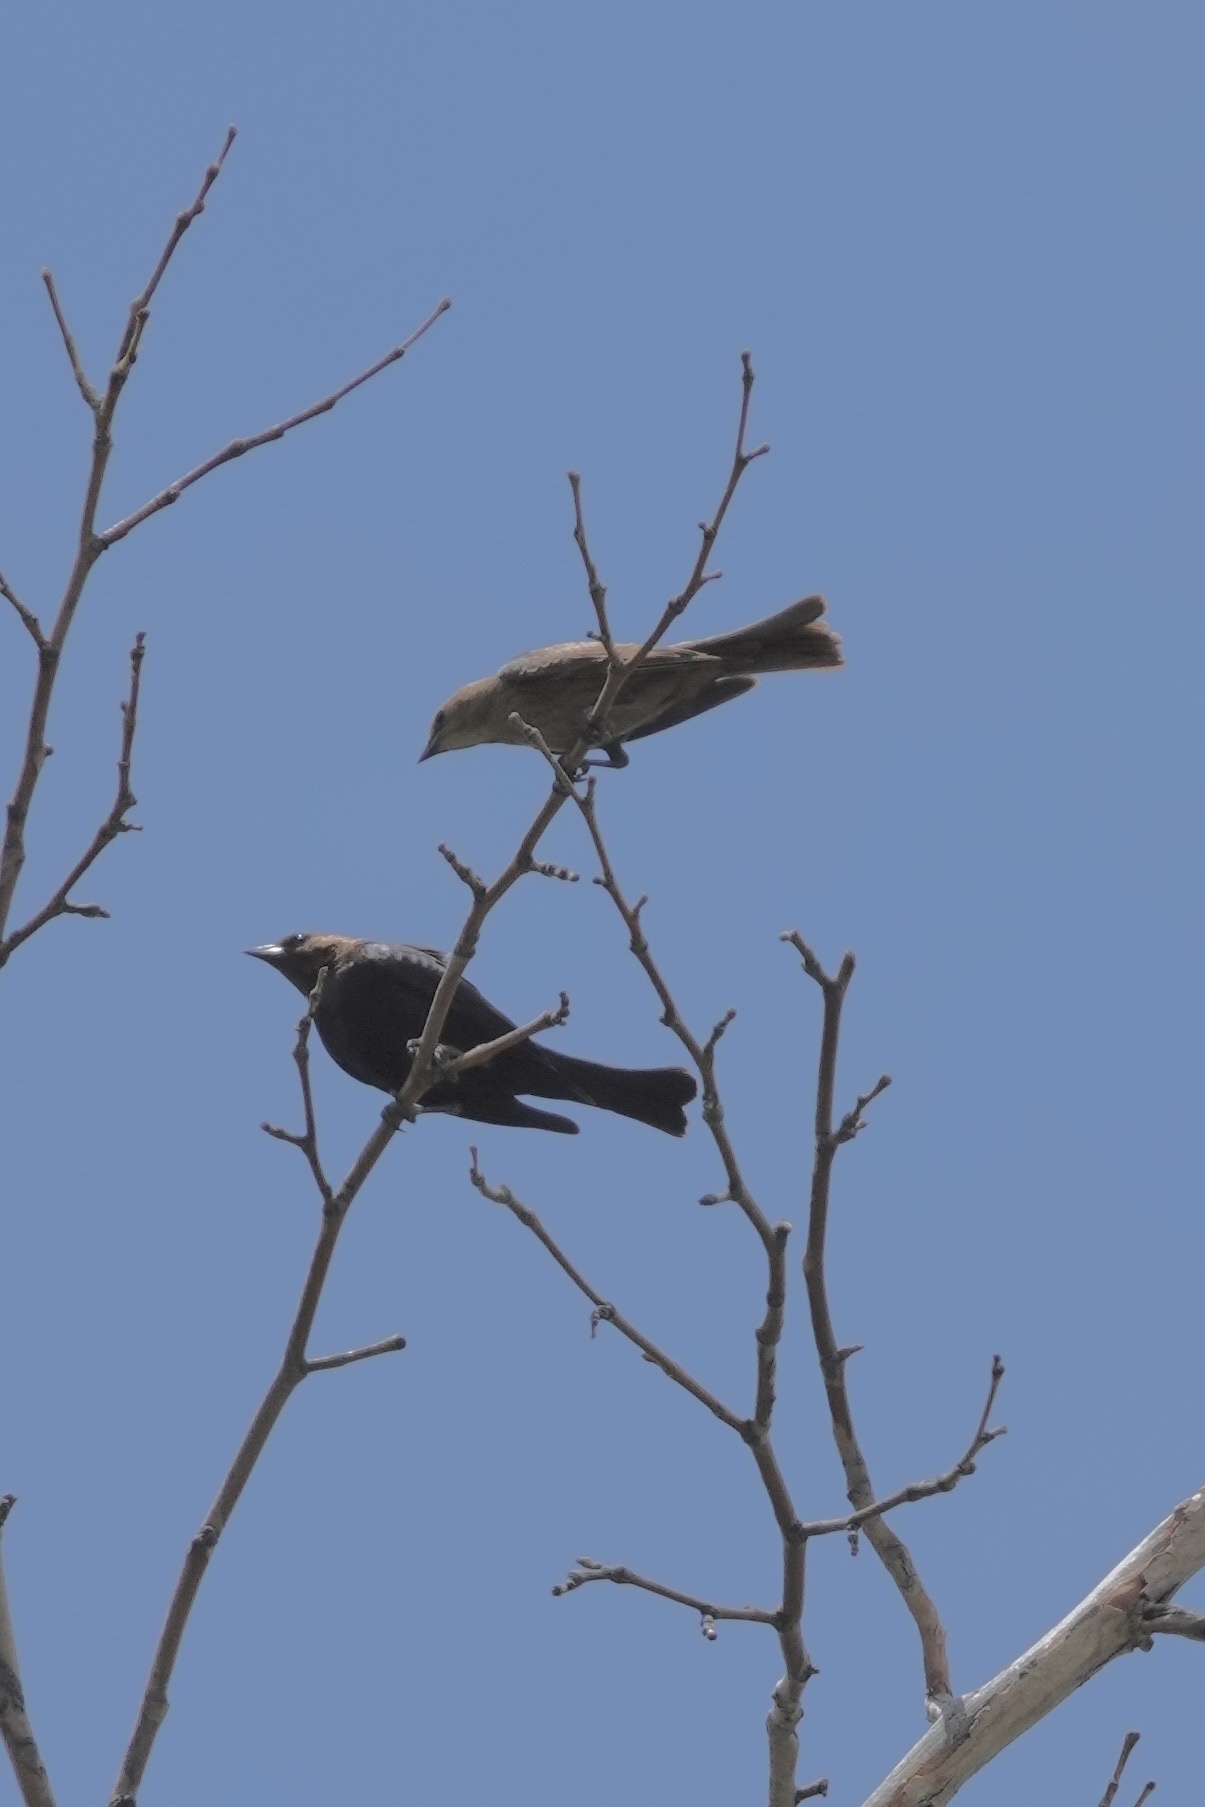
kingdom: Animalia
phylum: Chordata
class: Aves
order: Passeriformes
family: Icteridae
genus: Molothrus
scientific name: Molothrus ater
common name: Brown-headed cowbird
